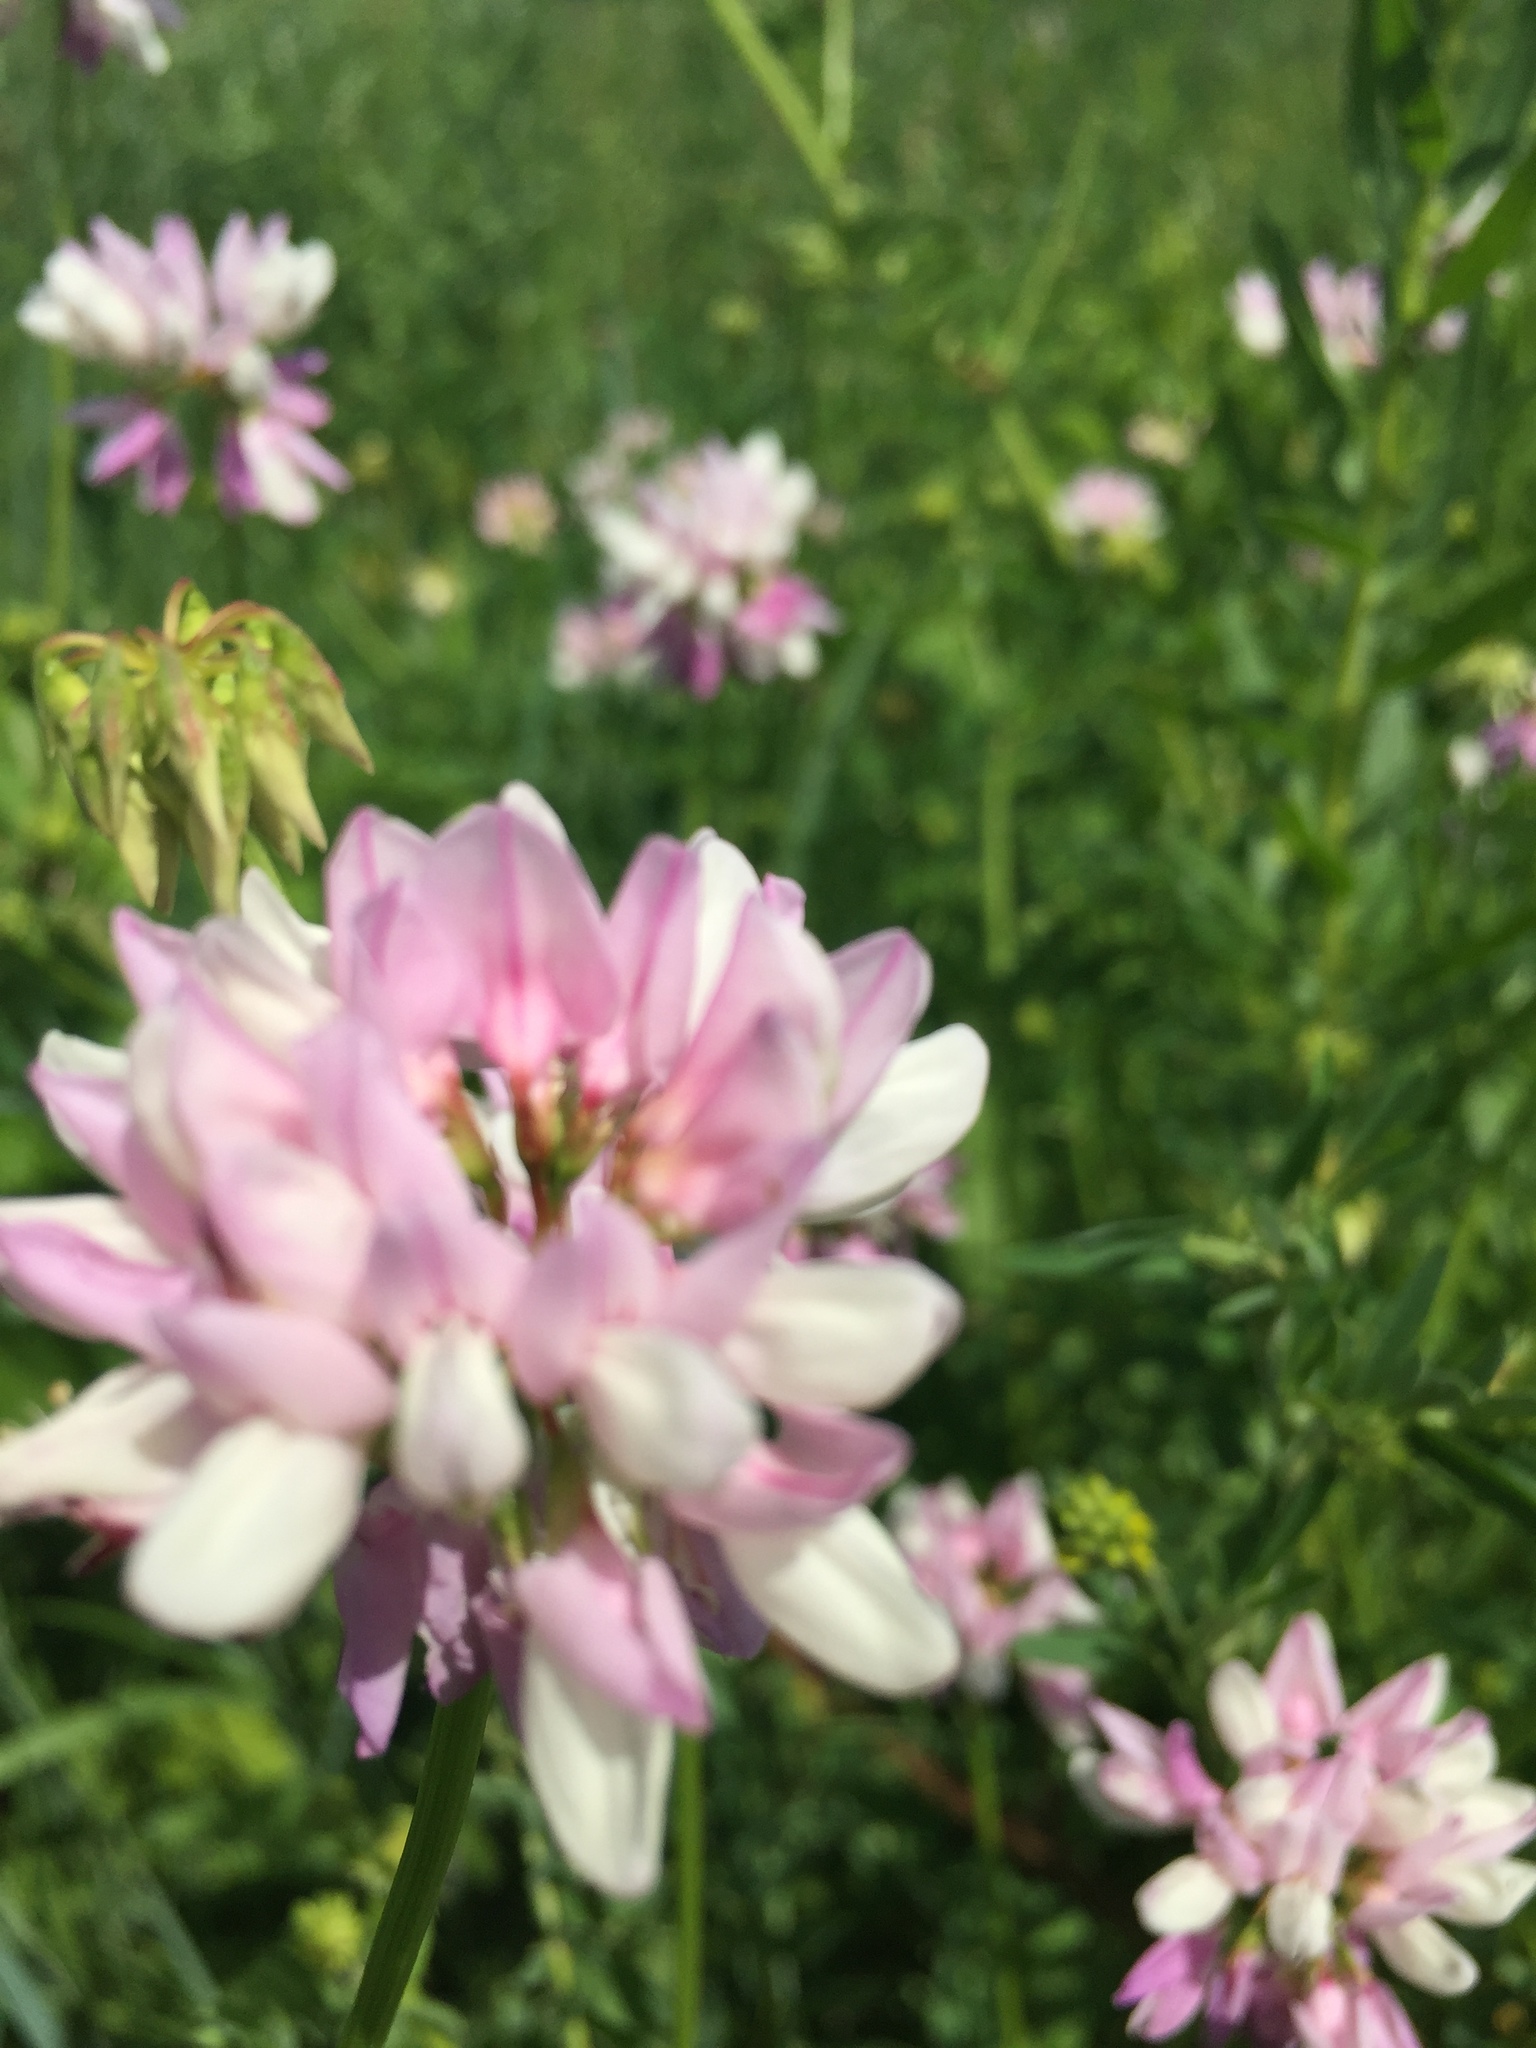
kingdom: Plantae
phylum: Tracheophyta
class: Magnoliopsida
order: Fabales
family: Fabaceae
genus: Coronilla
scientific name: Coronilla varia
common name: Crownvetch
